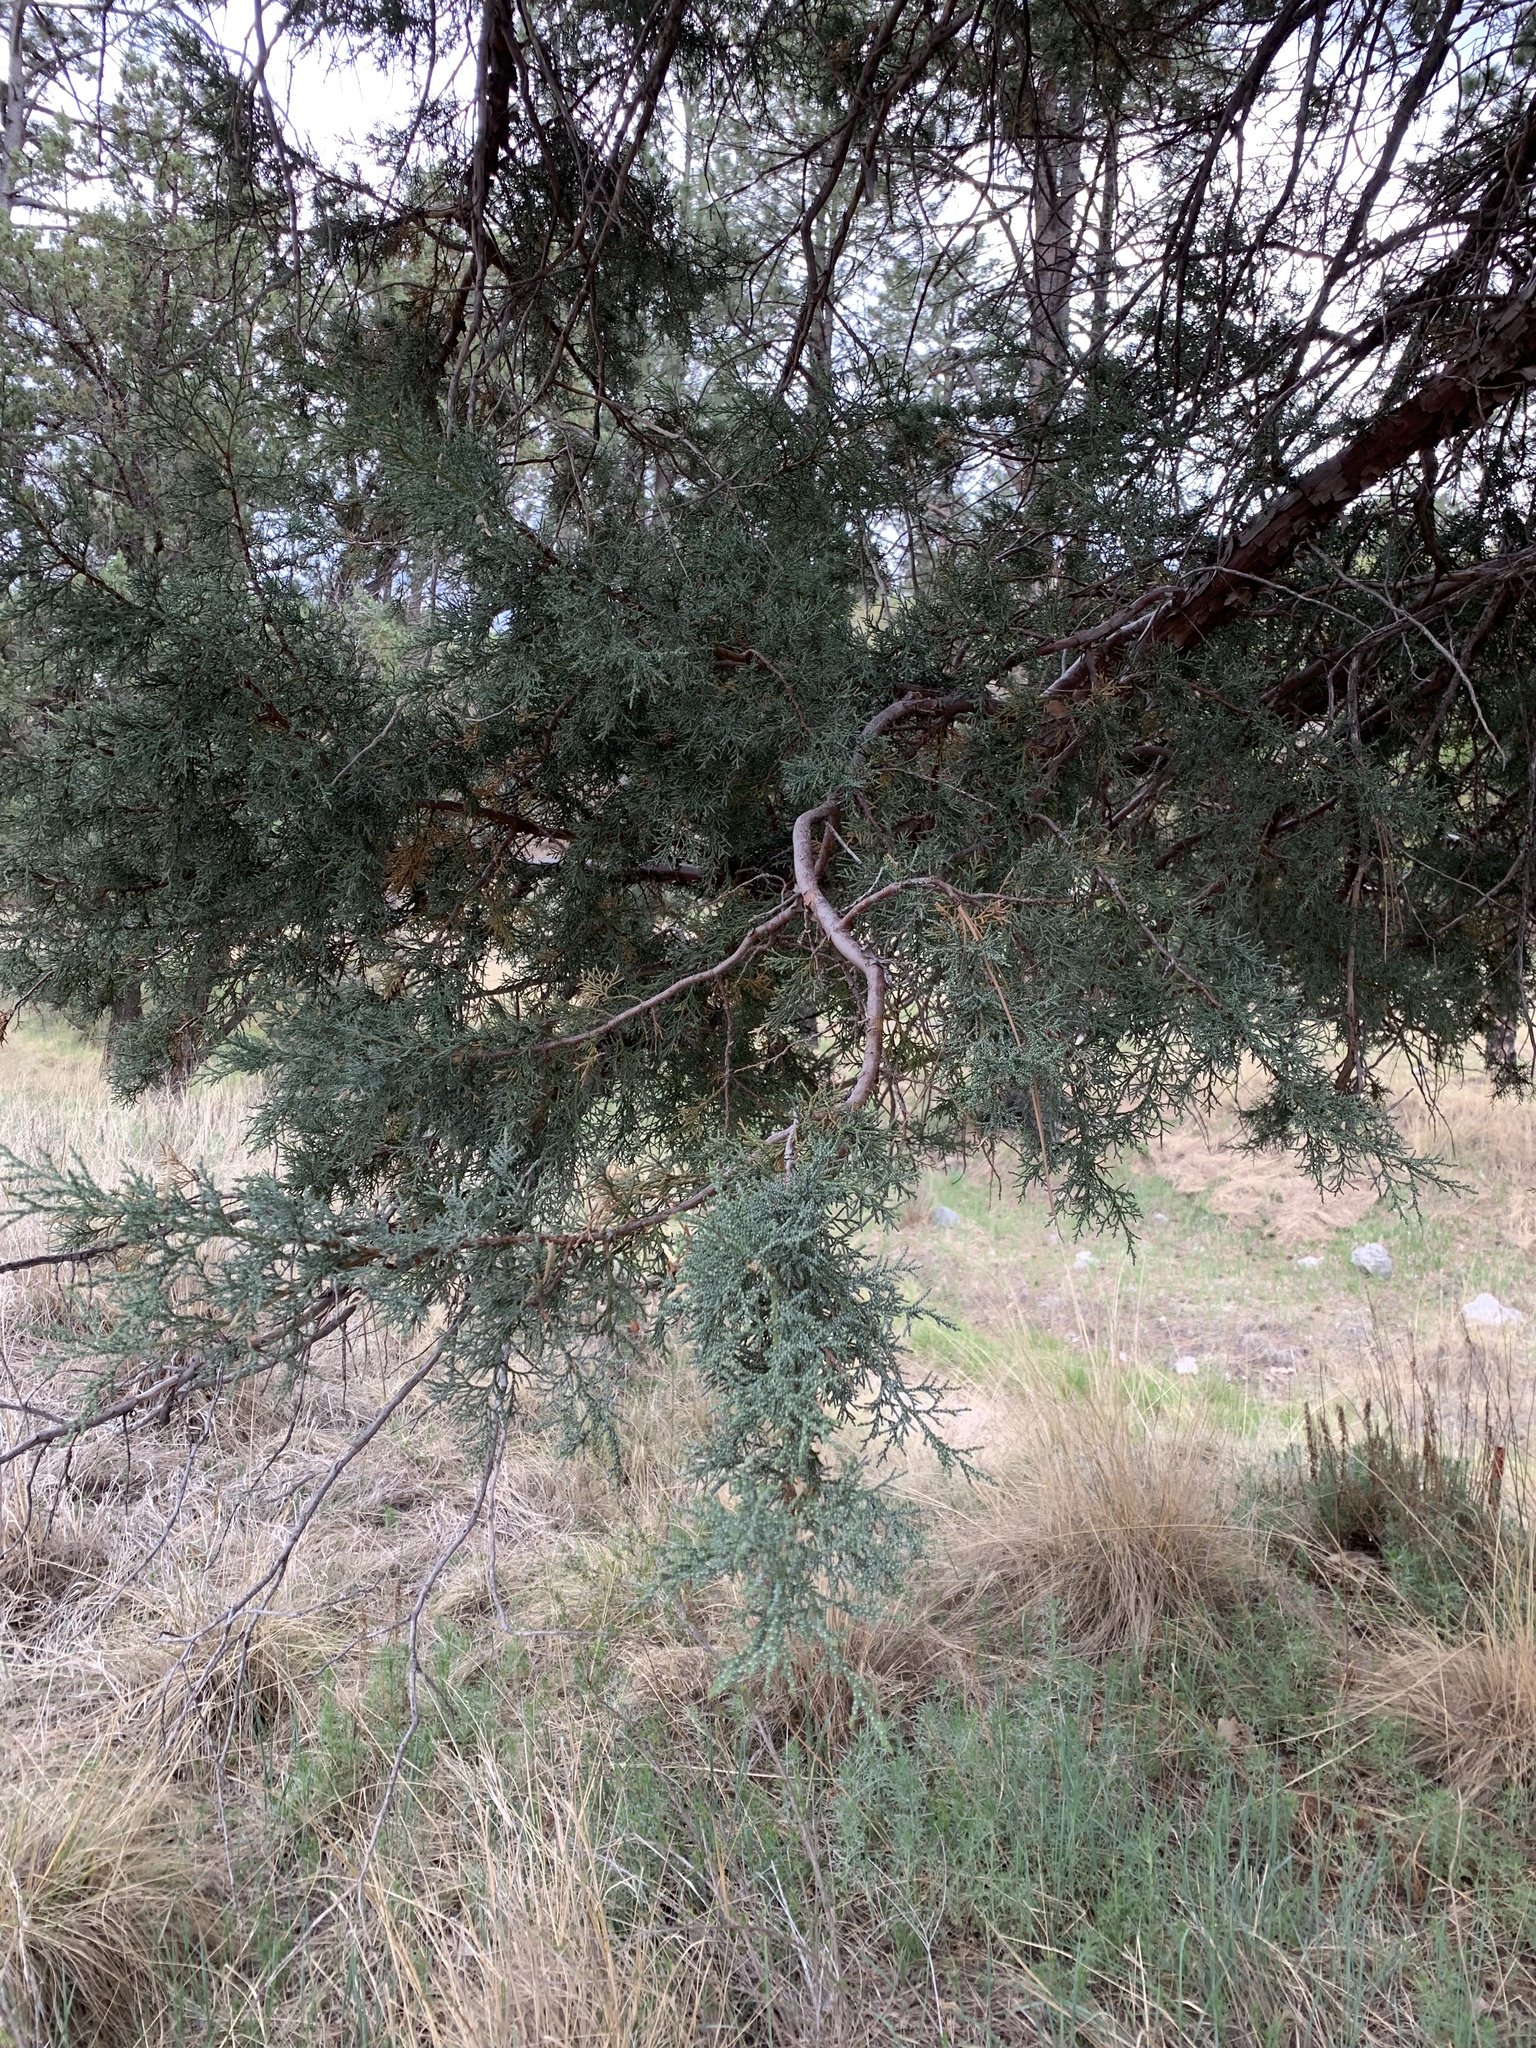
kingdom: Plantae
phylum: Tracheophyta
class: Pinopsida
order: Pinales
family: Cupressaceae
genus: Juniperus
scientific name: Juniperus deppeana
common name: Alligator juniper
